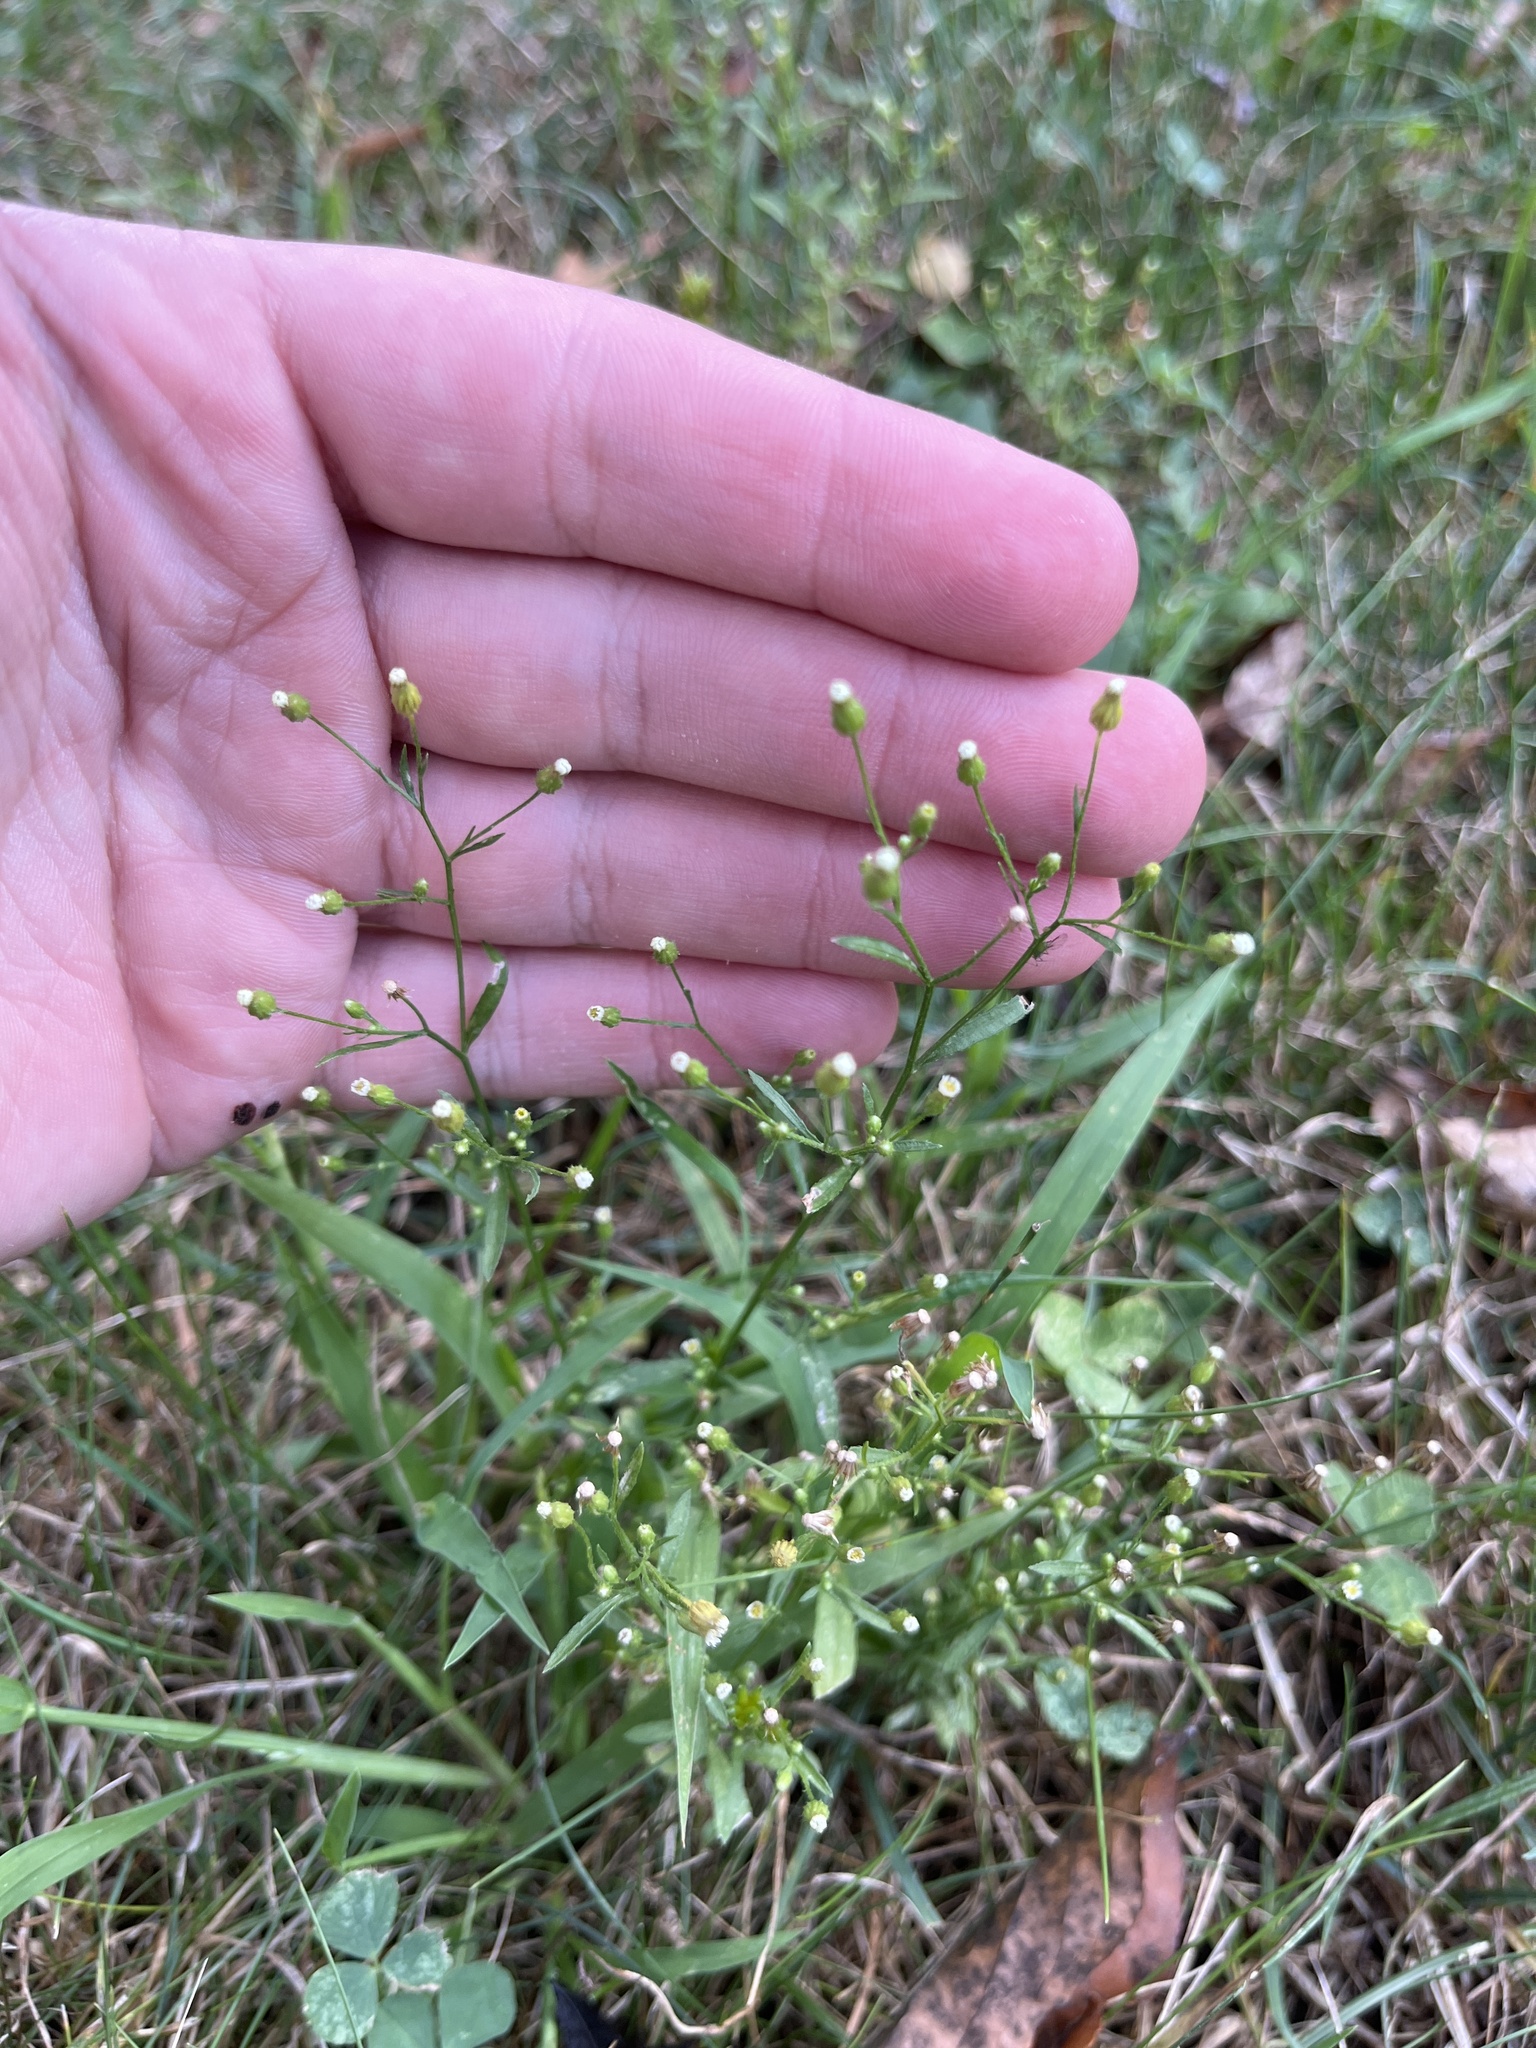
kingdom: Plantae
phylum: Tracheophyta
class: Magnoliopsida
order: Asterales
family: Asteraceae
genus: Erigeron
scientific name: Erigeron canadensis
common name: Canadian fleabane
